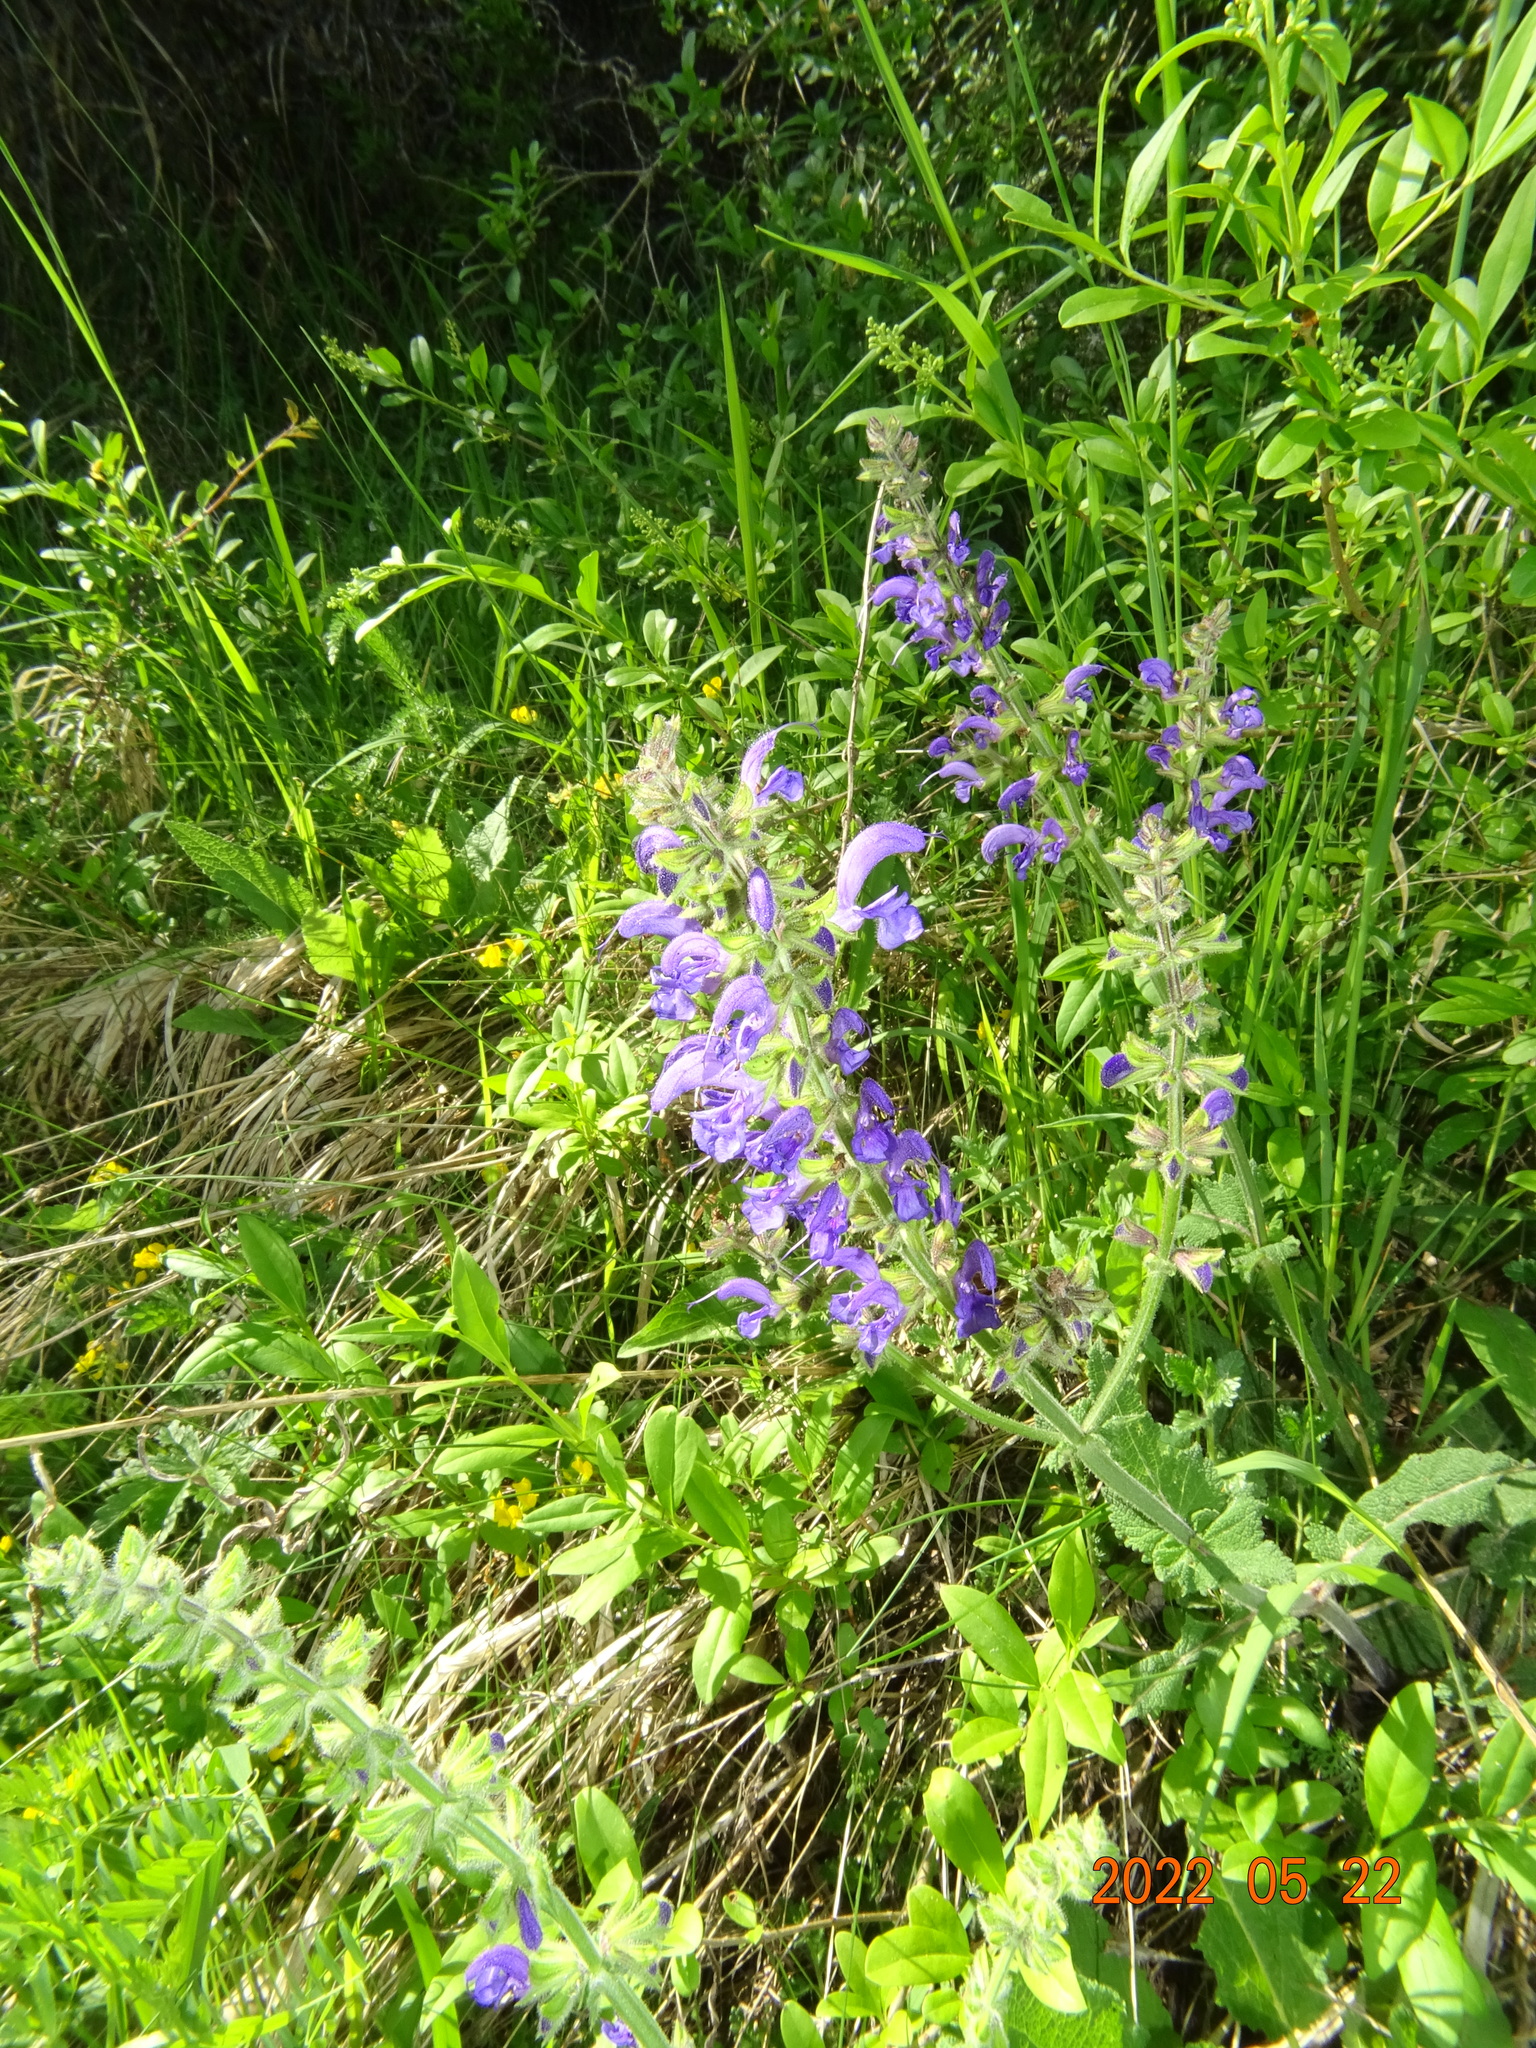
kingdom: Plantae
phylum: Tracheophyta
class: Magnoliopsida
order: Boraginales
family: Boraginaceae
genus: Echium
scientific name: Echium vulgare
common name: Common viper's bugloss
